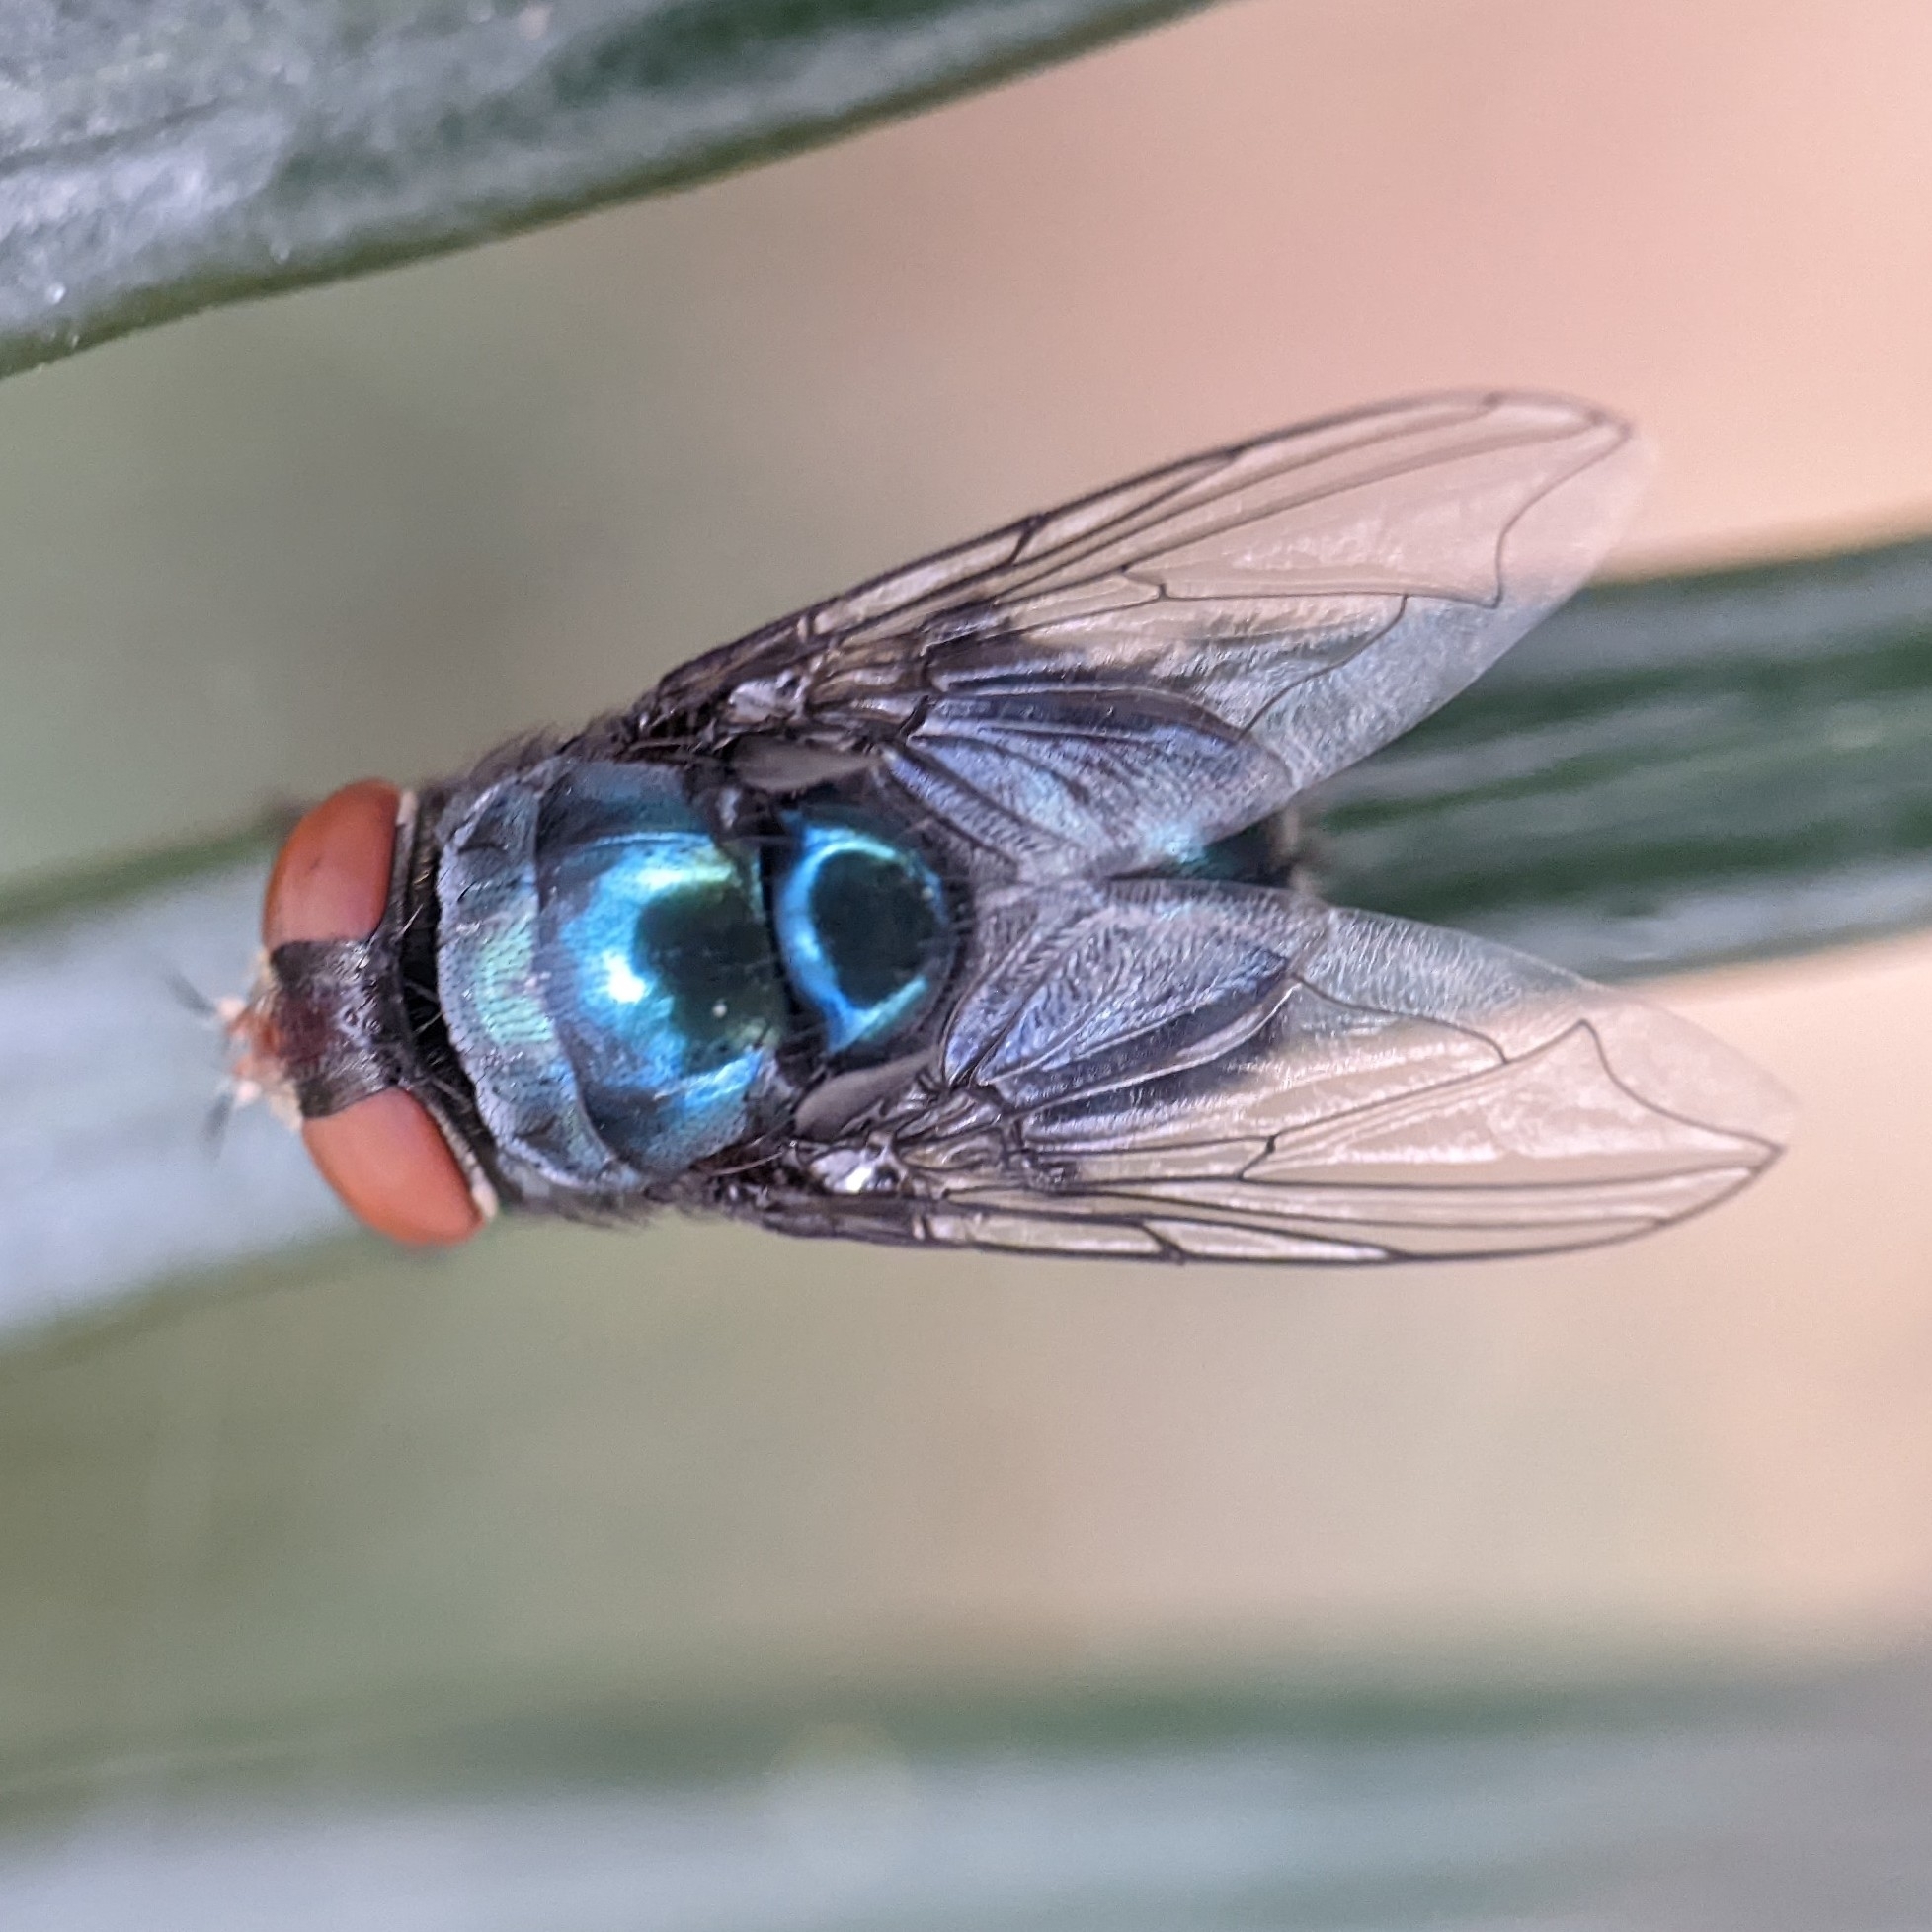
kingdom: Animalia
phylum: Arthropoda
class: Insecta
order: Diptera
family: Calliphoridae
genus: Chrysomya
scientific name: Chrysomya megacephala
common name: Blow fly
